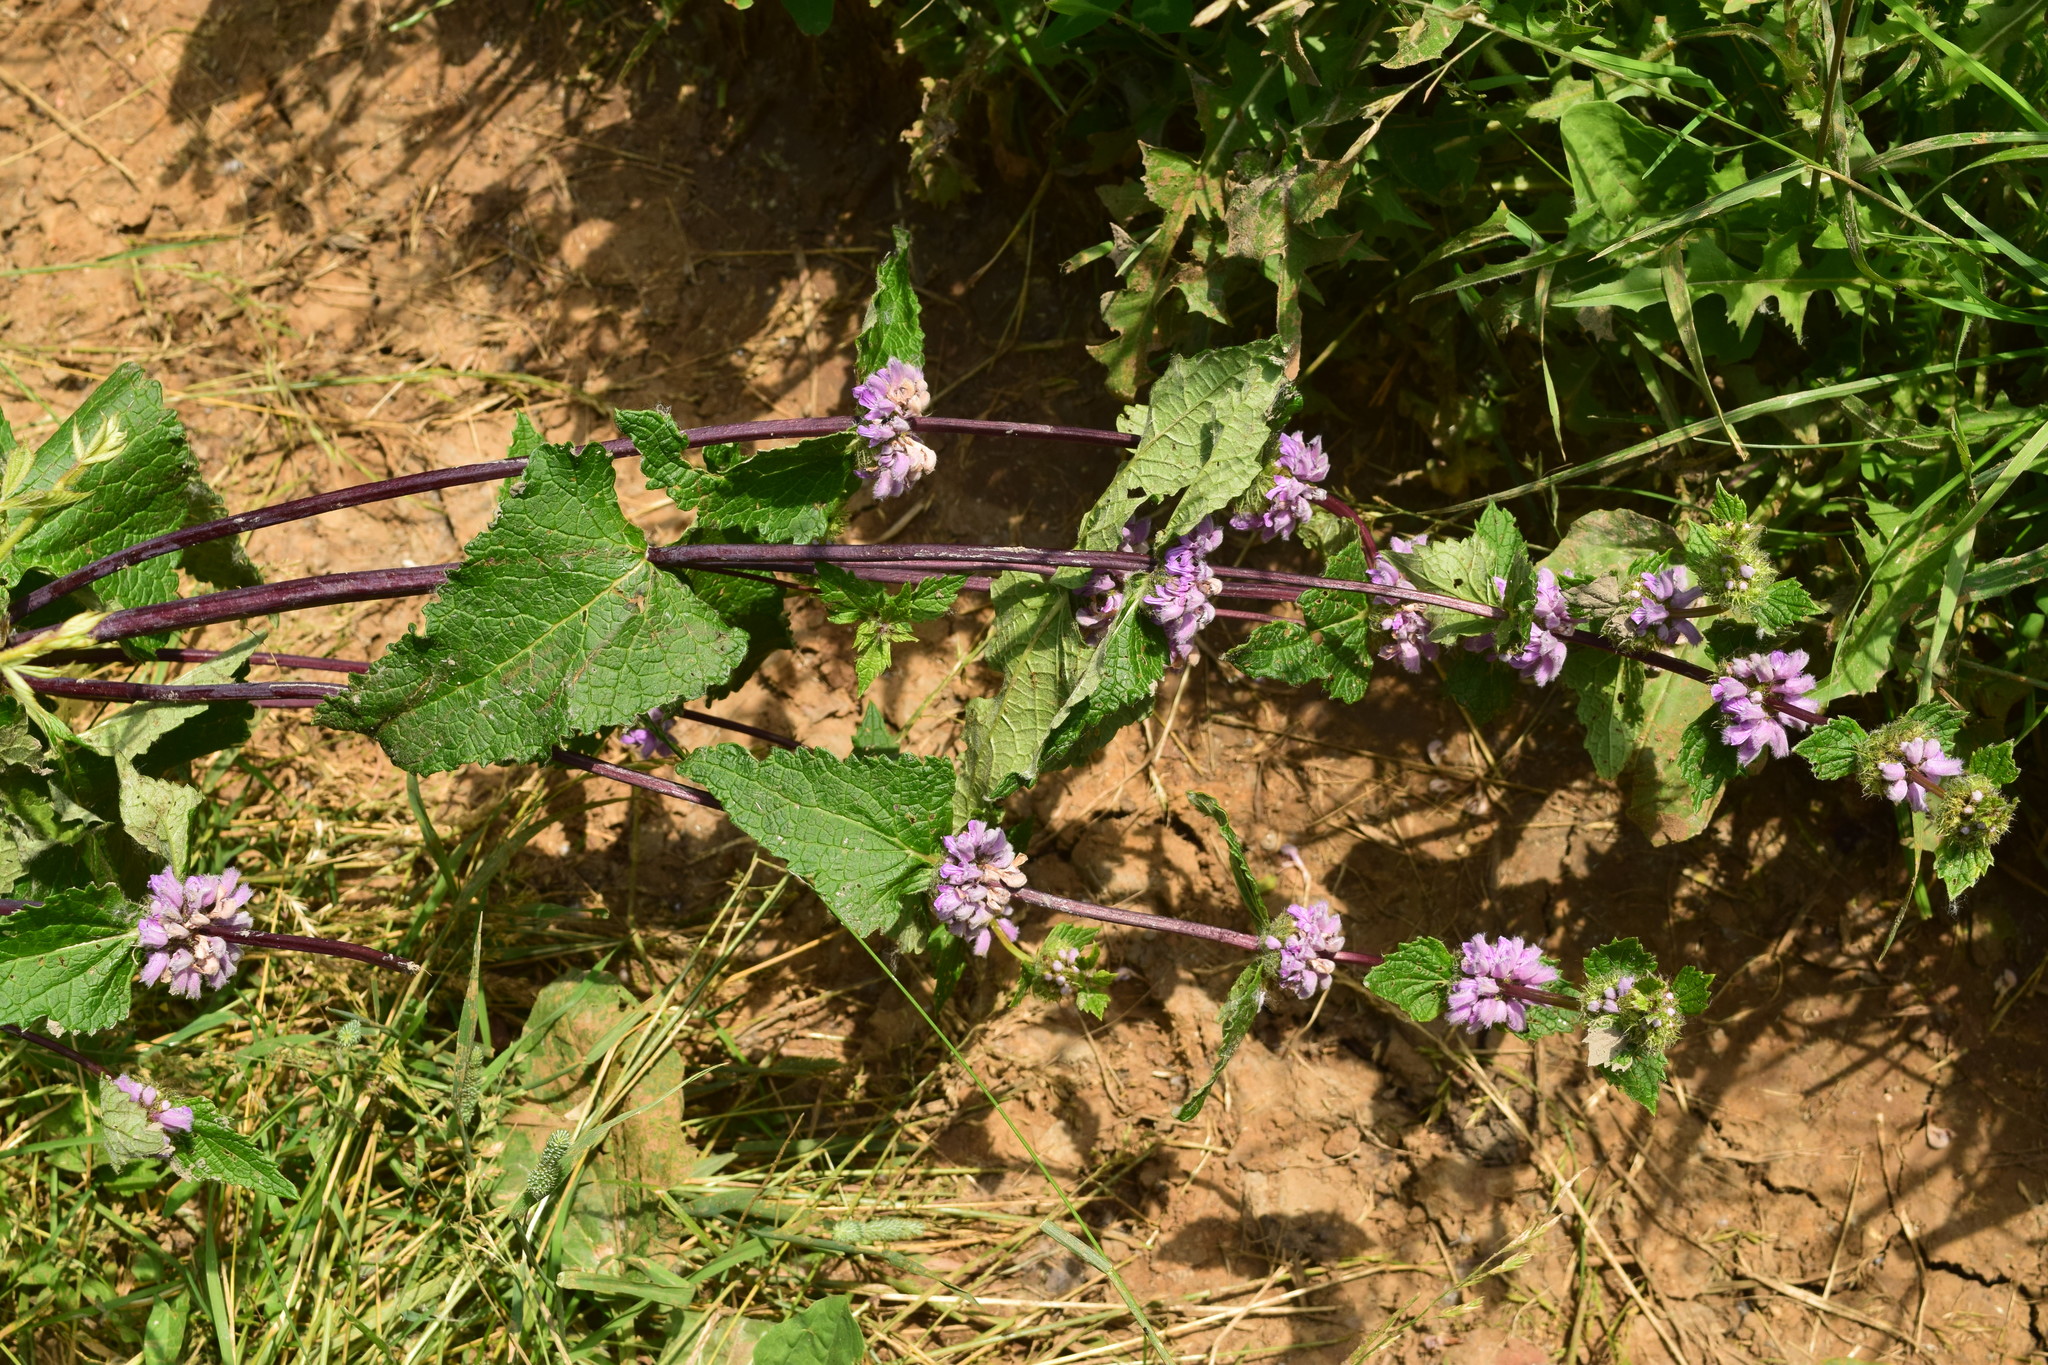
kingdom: Plantae
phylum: Tracheophyta
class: Magnoliopsida
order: Lamiales
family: Lamiaceae
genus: Phlomoides
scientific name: Phlomoides tuberosa
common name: Tuberous jerusalem sage
